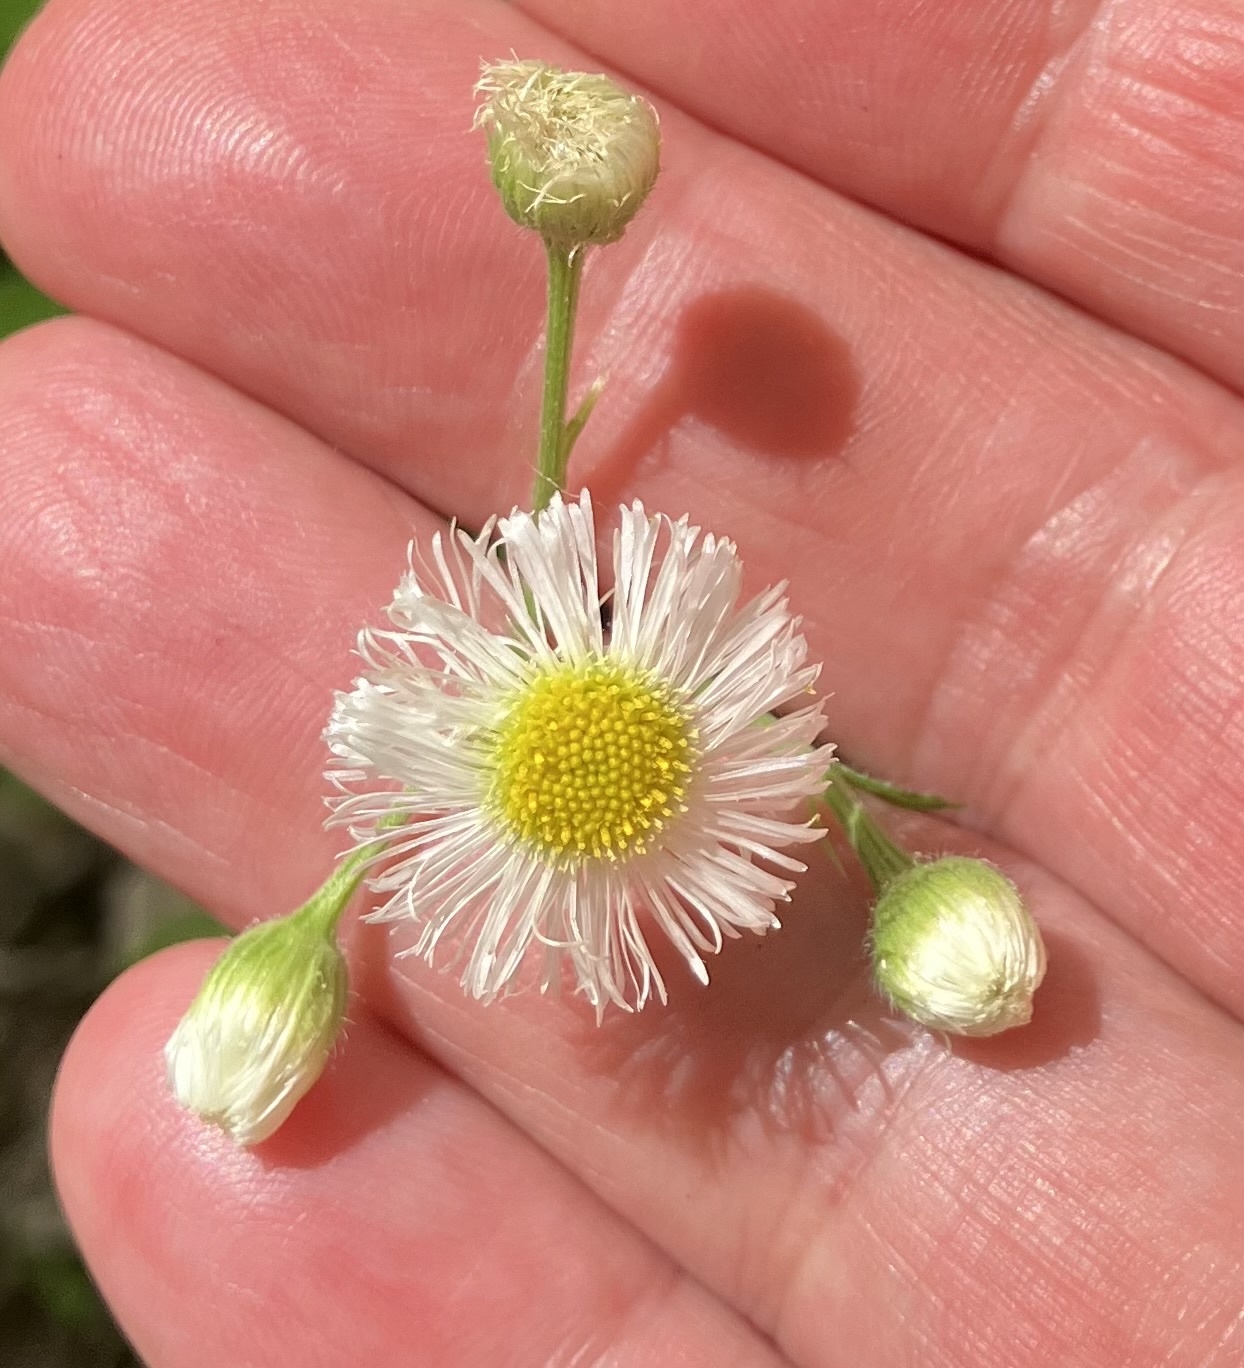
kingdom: Plantae
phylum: Tracheophyta
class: Magnoliopsida
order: Asterales
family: Asteraceae
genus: Erigeron
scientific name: Erigeron philadelphicus
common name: Robin's-plantain
